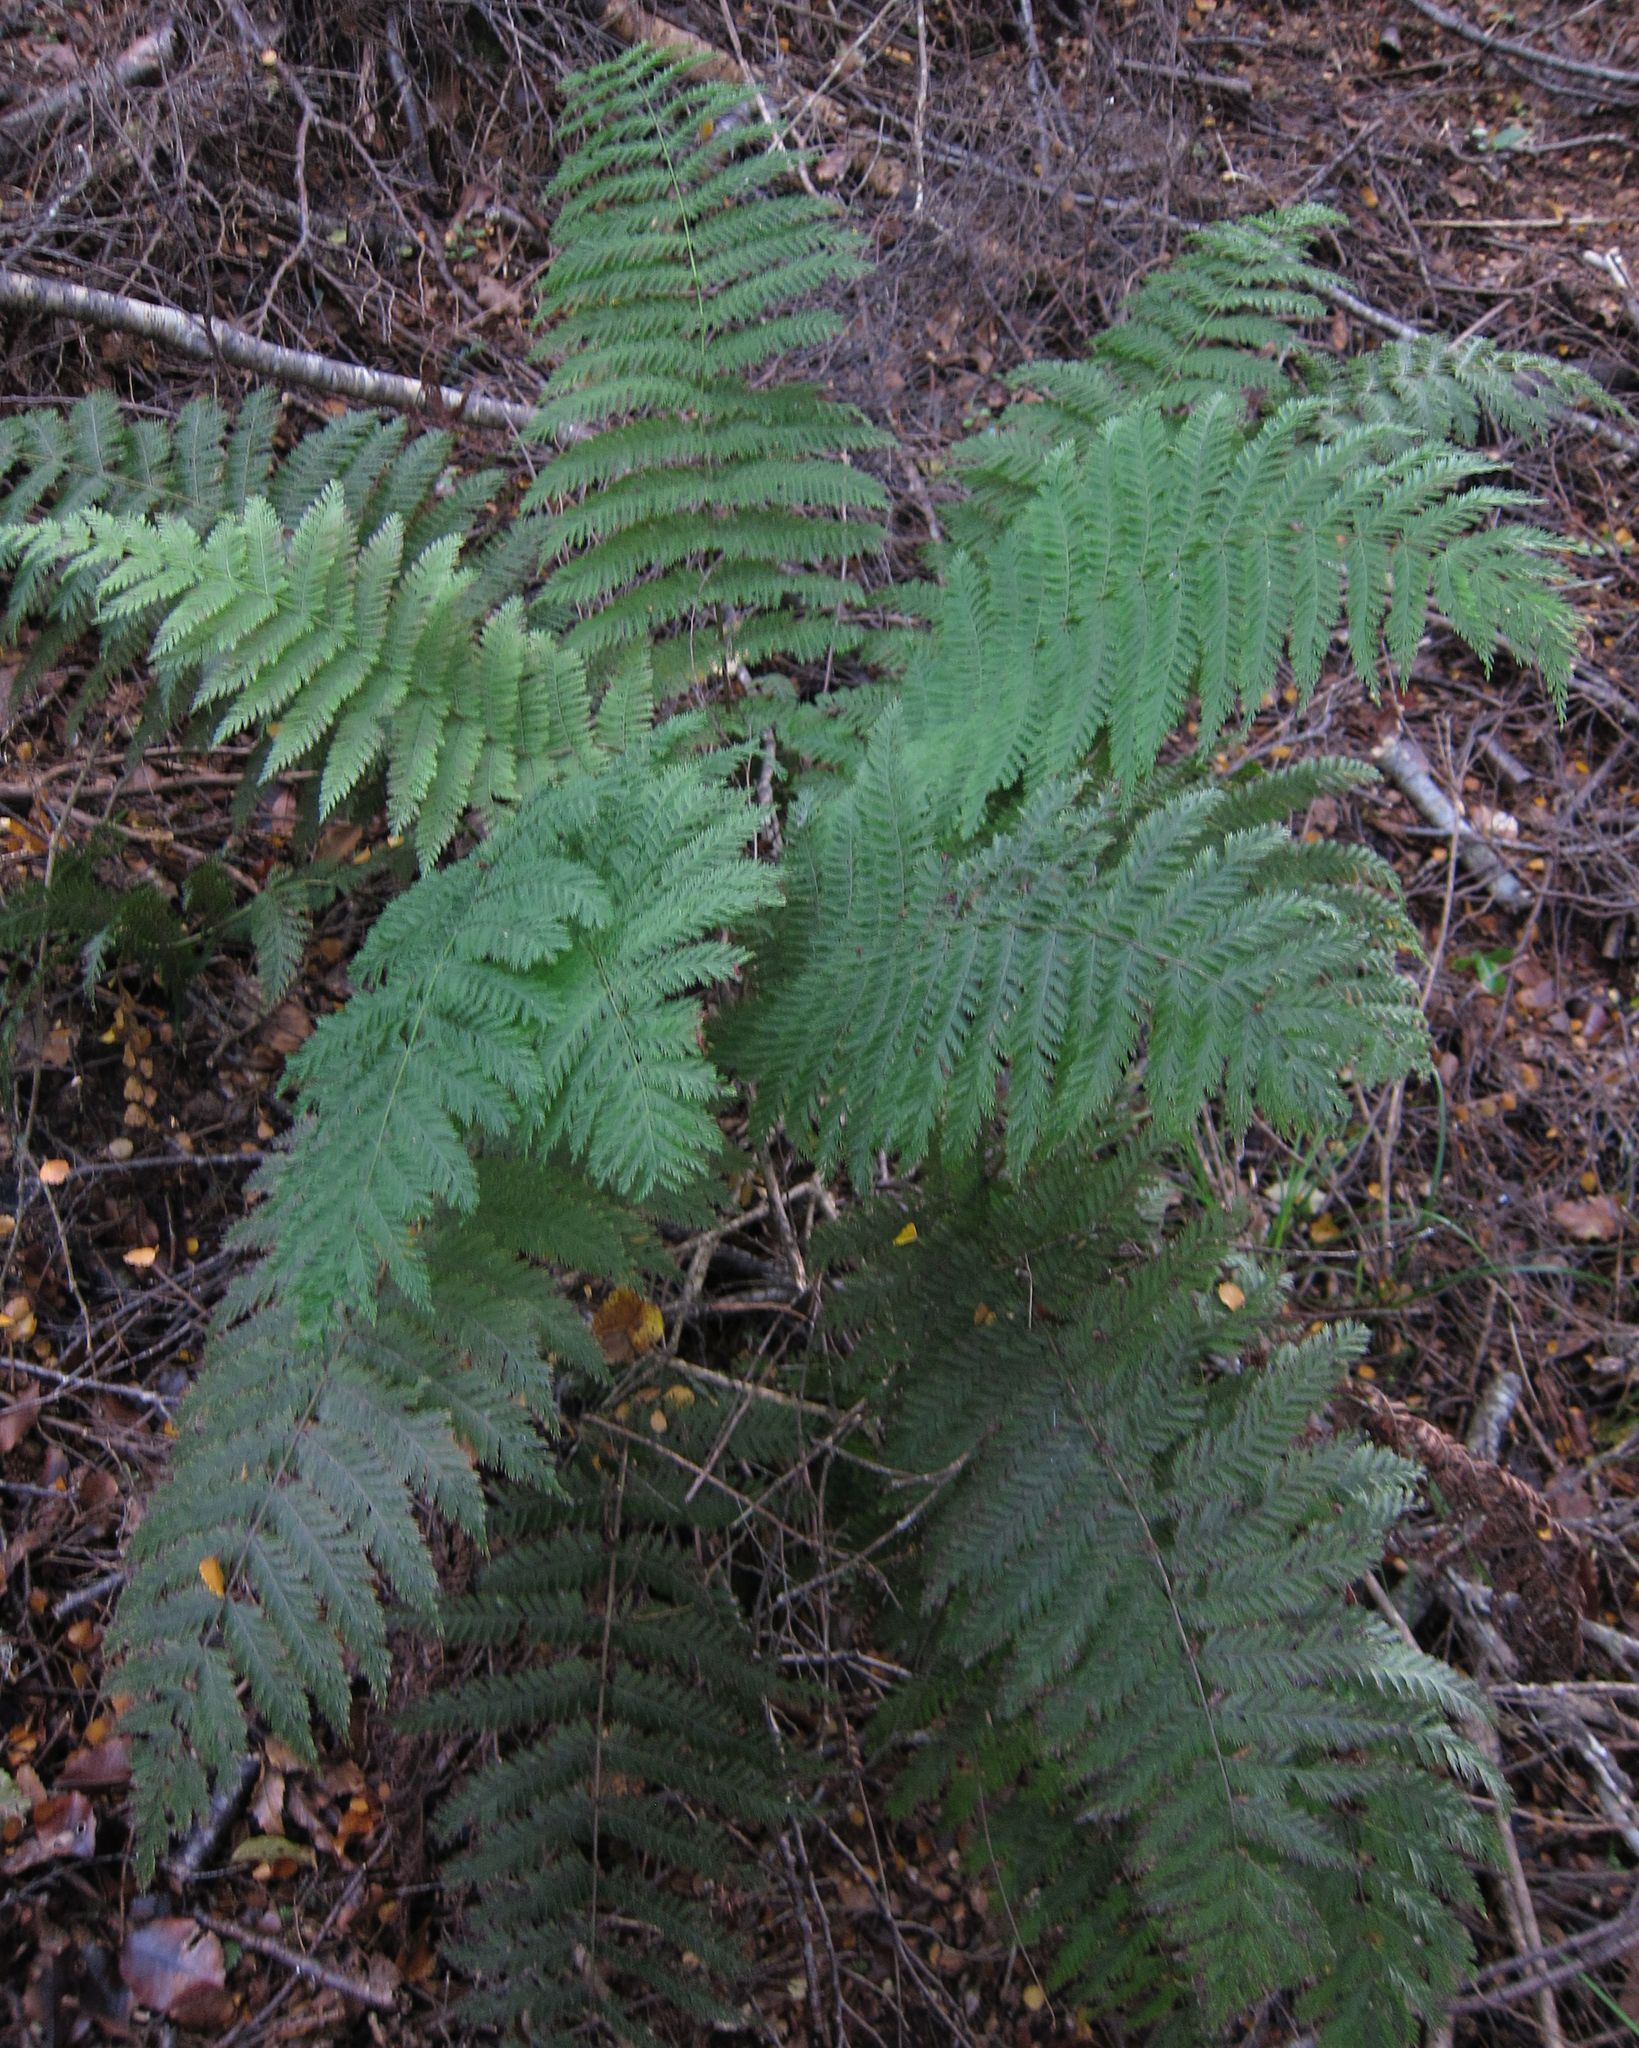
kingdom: Plantae
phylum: Tracheophyta
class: Polypodiopsida
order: Osmundales
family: Osmundaceae
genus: Leptopteris
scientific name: Leptopteris hymenophylloides
